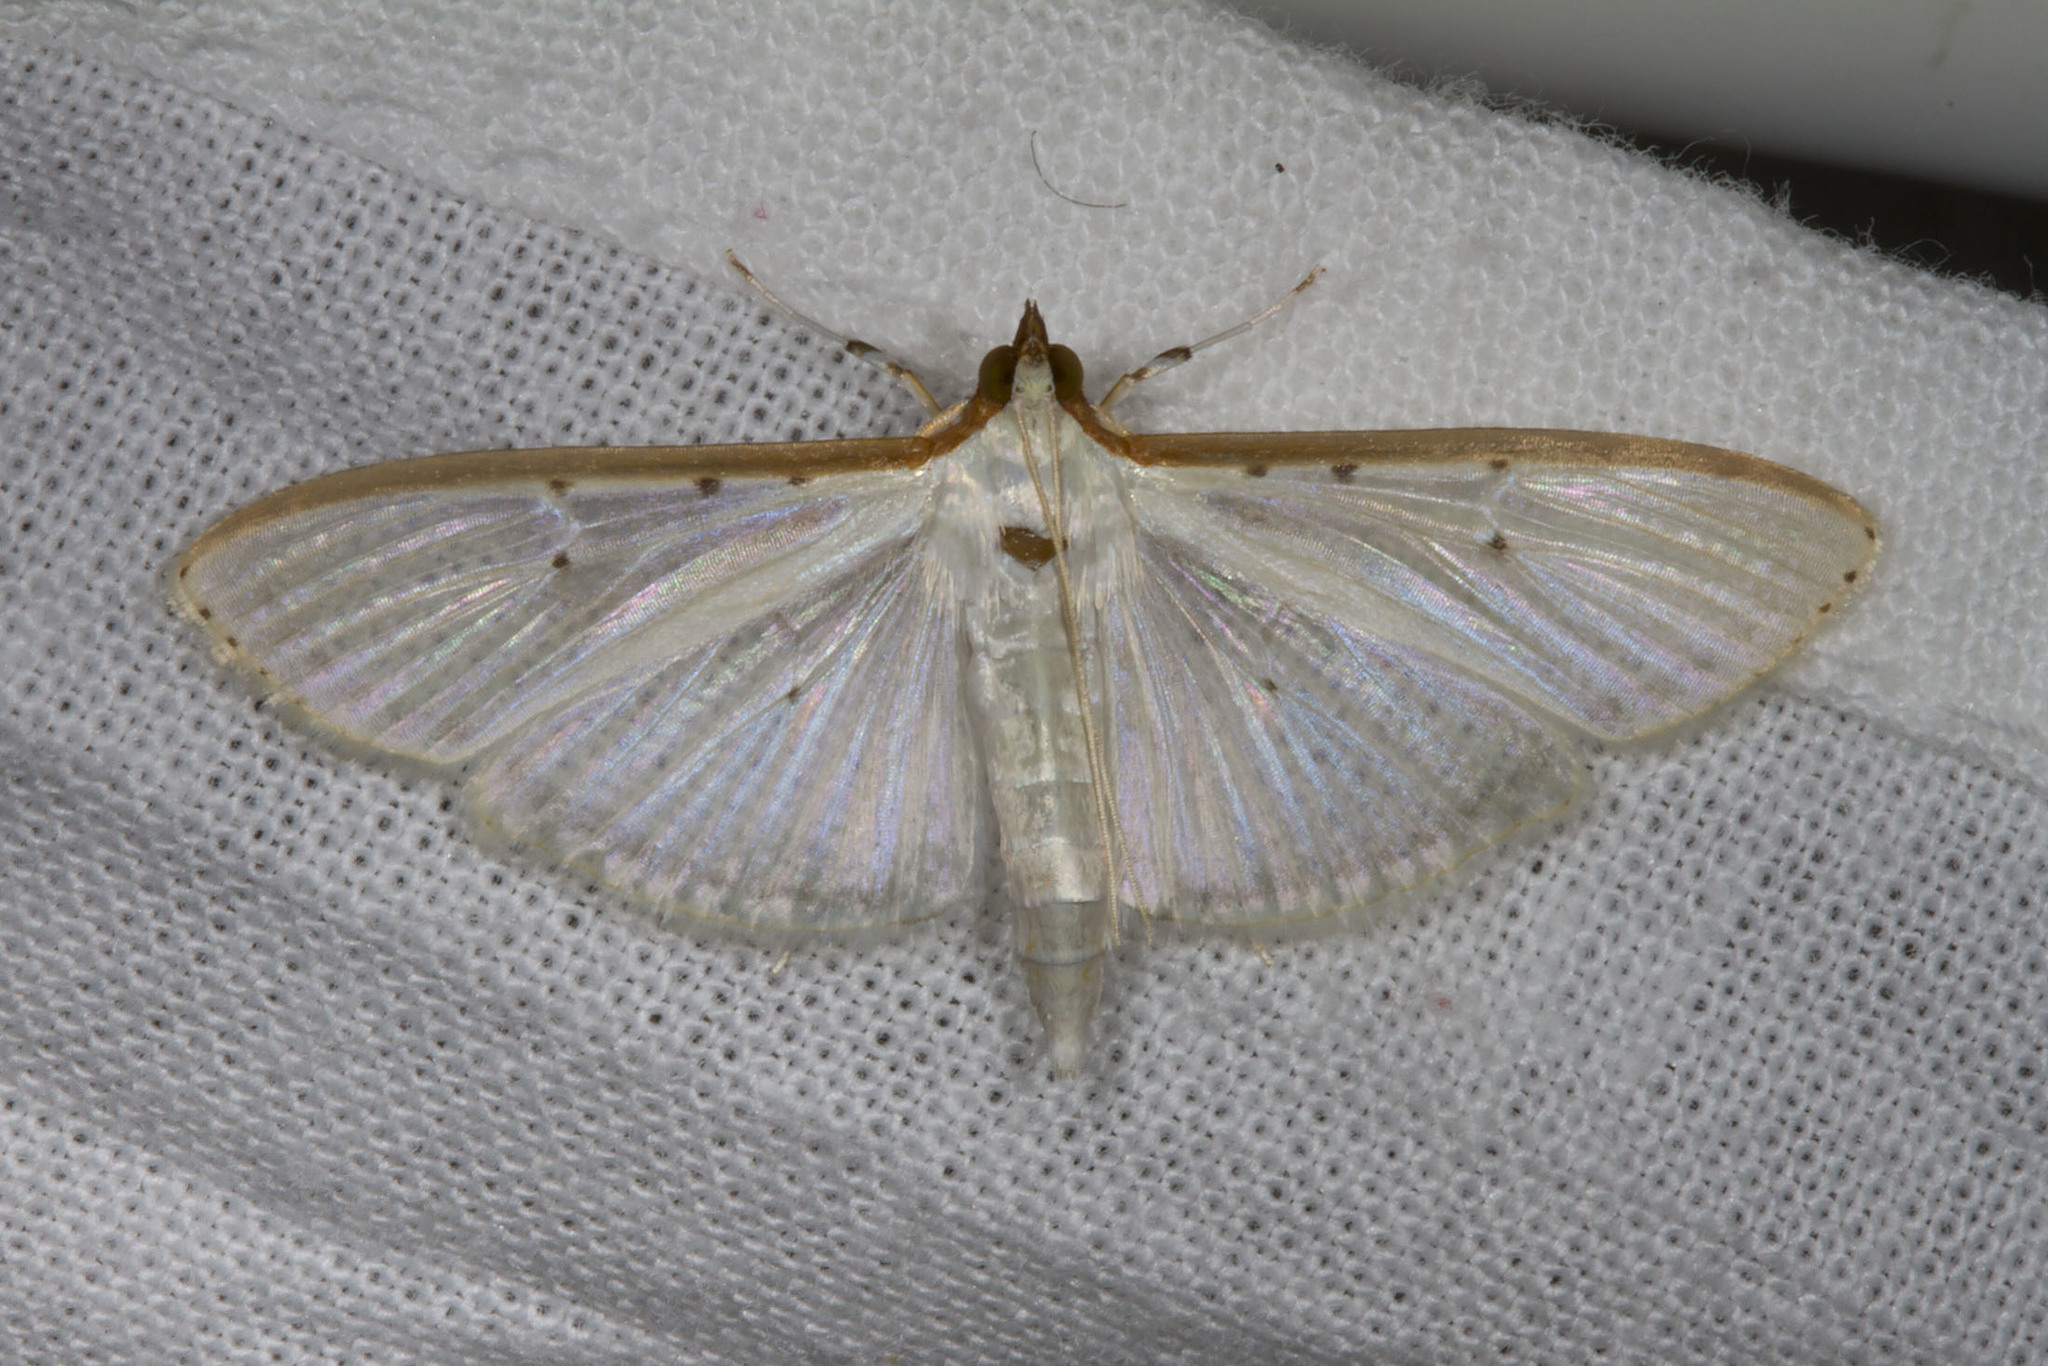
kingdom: Animalia
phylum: Arthropoda
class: Insecta
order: Lepidoptera
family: Crambidae
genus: Palpita
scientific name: Palpita quadristigmalis
